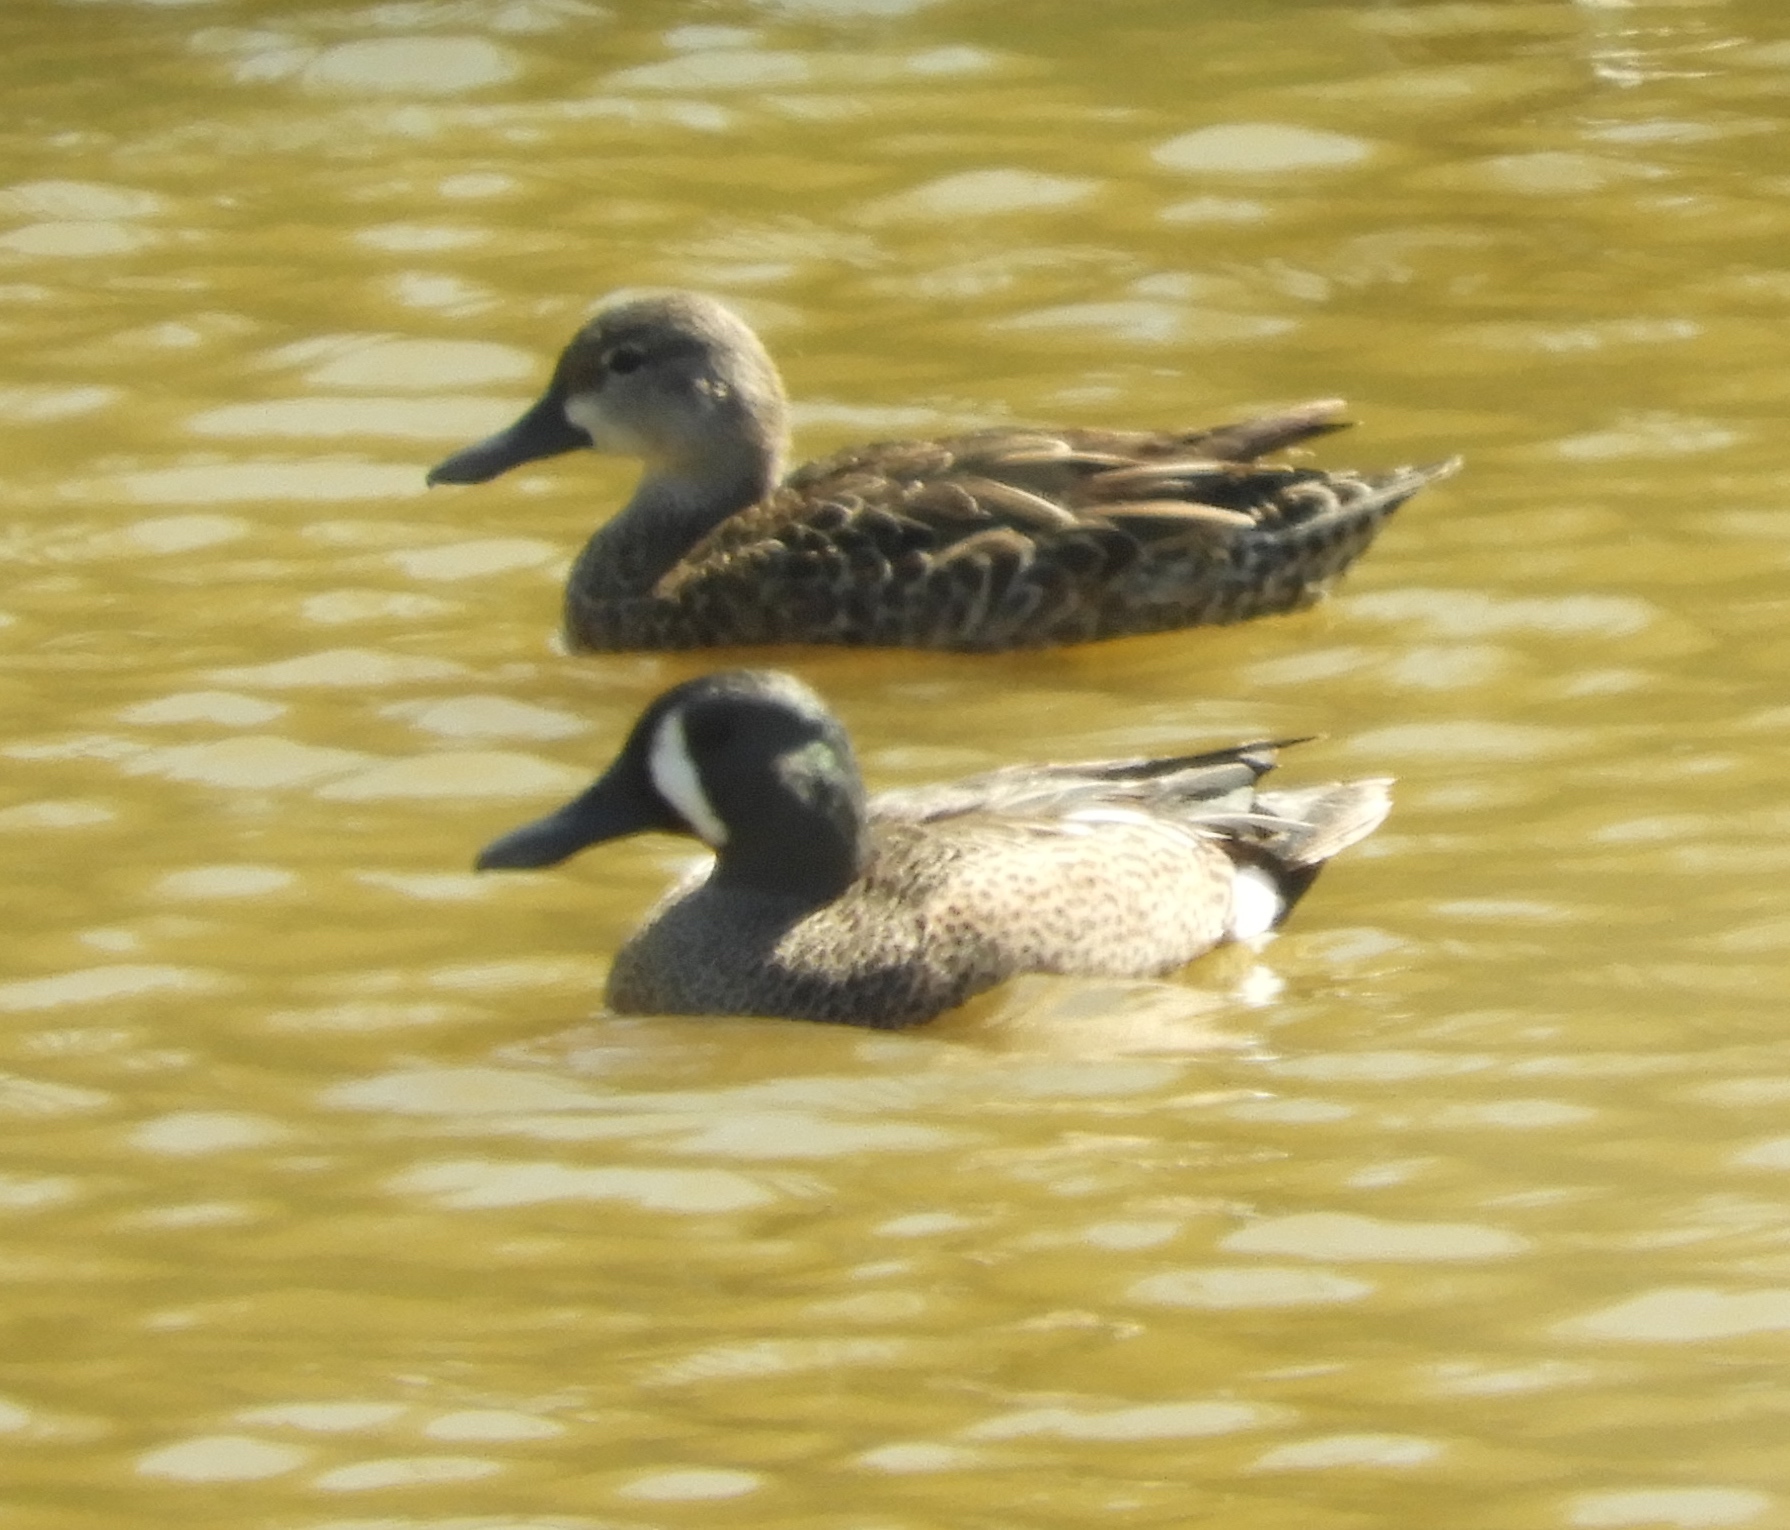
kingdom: Animalia
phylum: Chordata
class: Aves
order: Anseriformes
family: Anatidae
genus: Spatula
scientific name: Spatula discors
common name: Blue-winged teal
